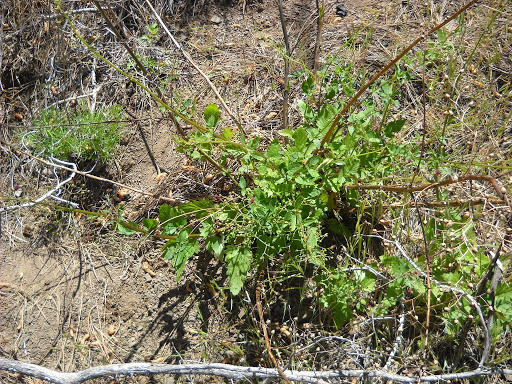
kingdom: Plantae
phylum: Tracheophyta
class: Magnoliopsida
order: Lamiales
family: Scrophulariaceae
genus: Scrophularia
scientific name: Scrophularia californica
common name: California figwort
